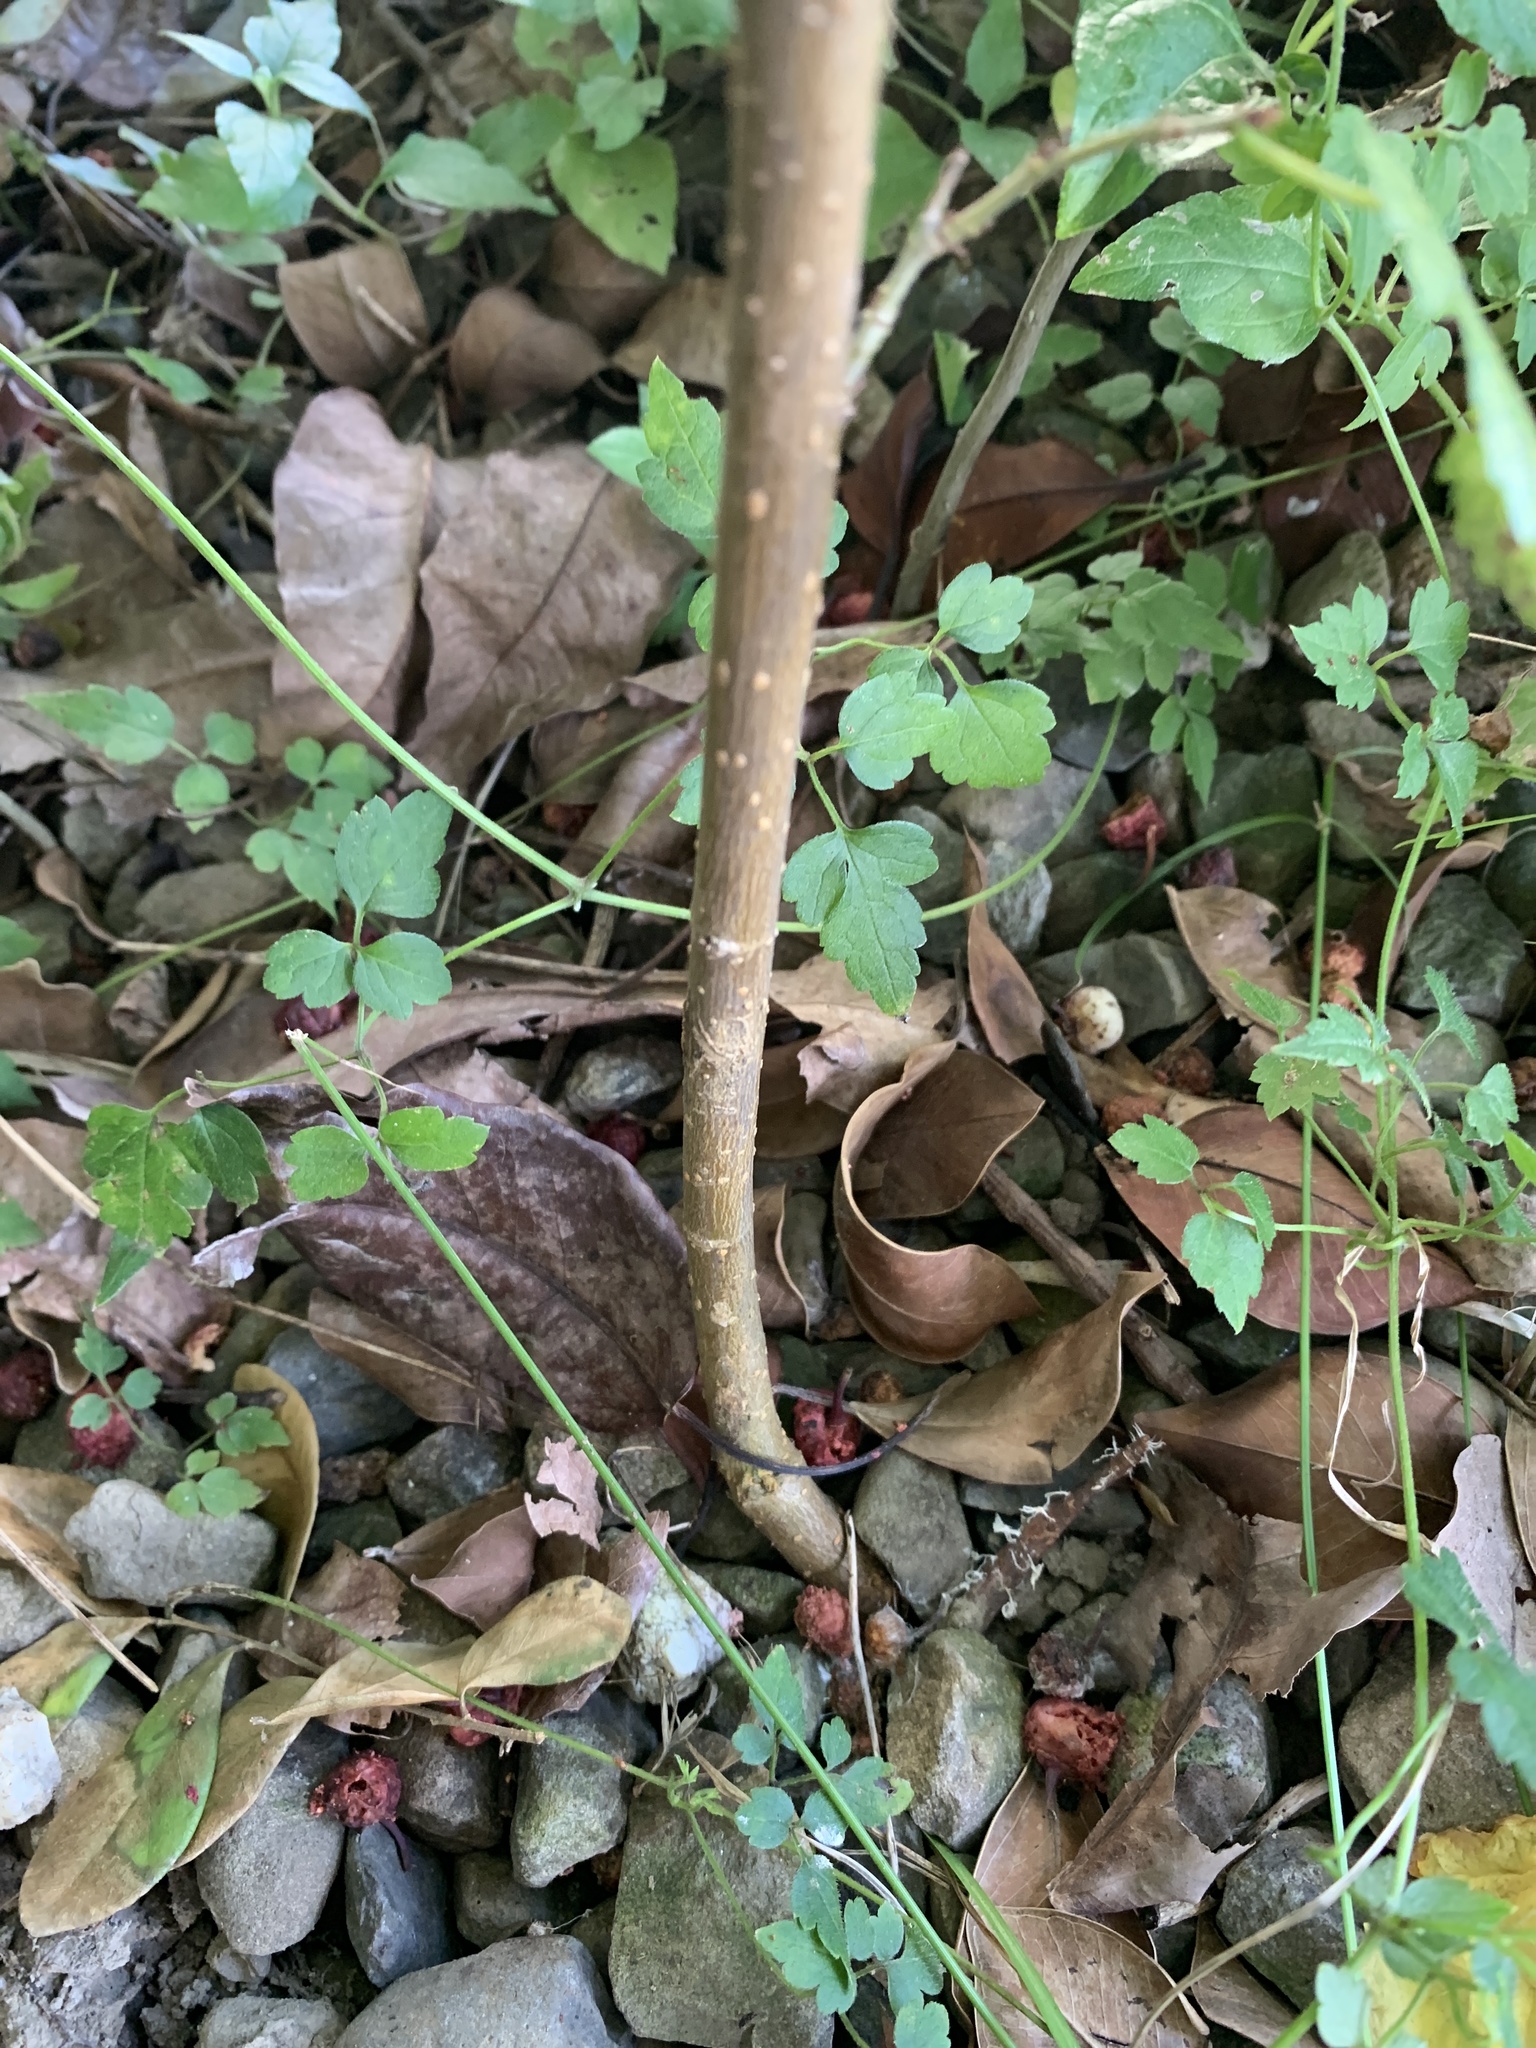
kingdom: Plantae
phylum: Tracheophyta
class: Magnoliopsida
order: Rosales
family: Moraceae
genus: Morus
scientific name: Morus indica
